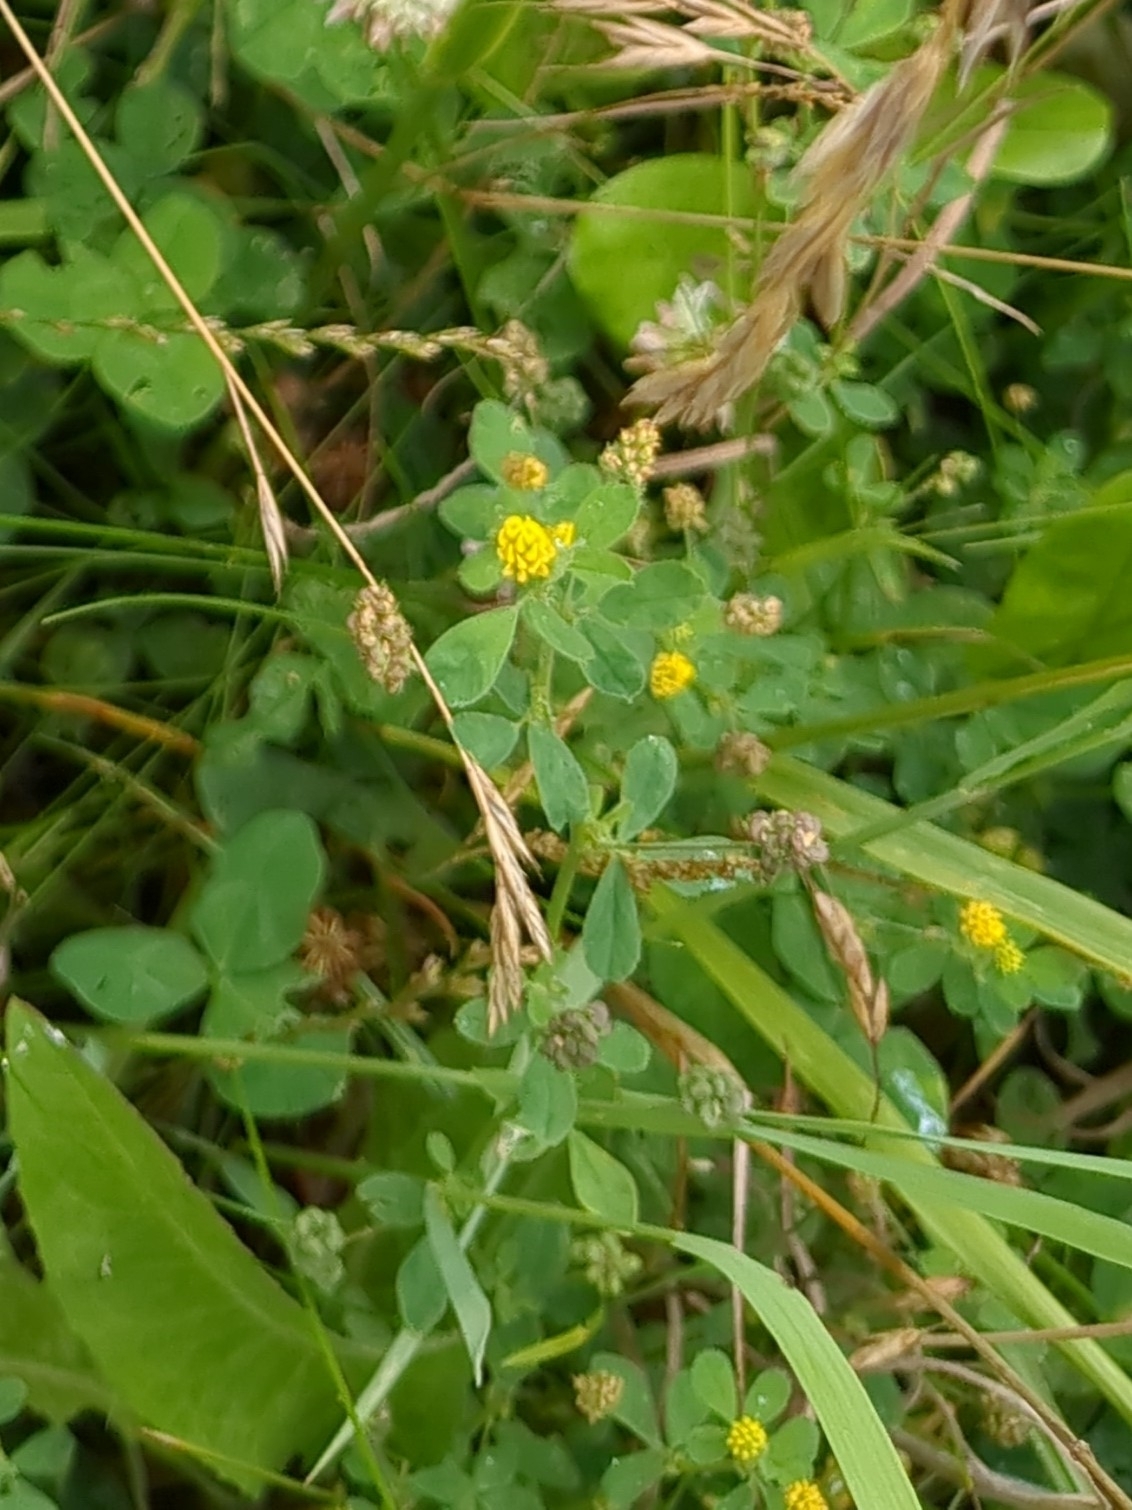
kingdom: Plantae
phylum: Tracheophyta
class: Magnoliopsida
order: Fabales
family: Fabaceae
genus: Medicago
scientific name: Medicago lupulina
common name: Black medick
